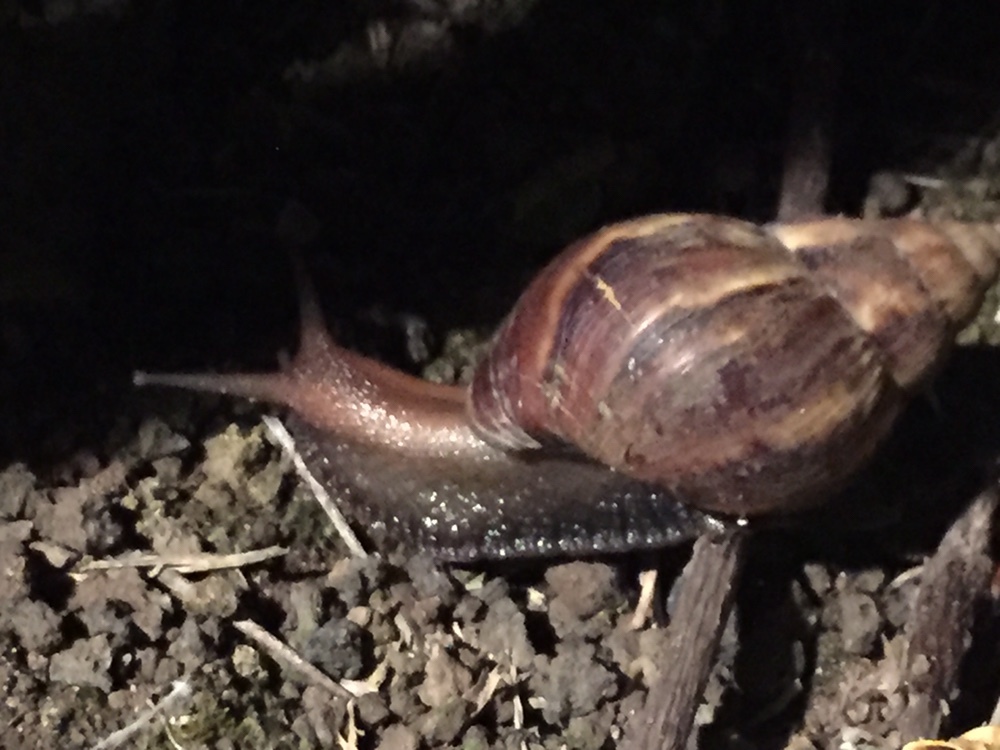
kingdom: Animalia
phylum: Mollusca
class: Gastropoda
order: Stylommatophora
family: Achatinidae
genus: Lissachatina
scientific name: Lissachatina fulica
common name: Giant african snail
